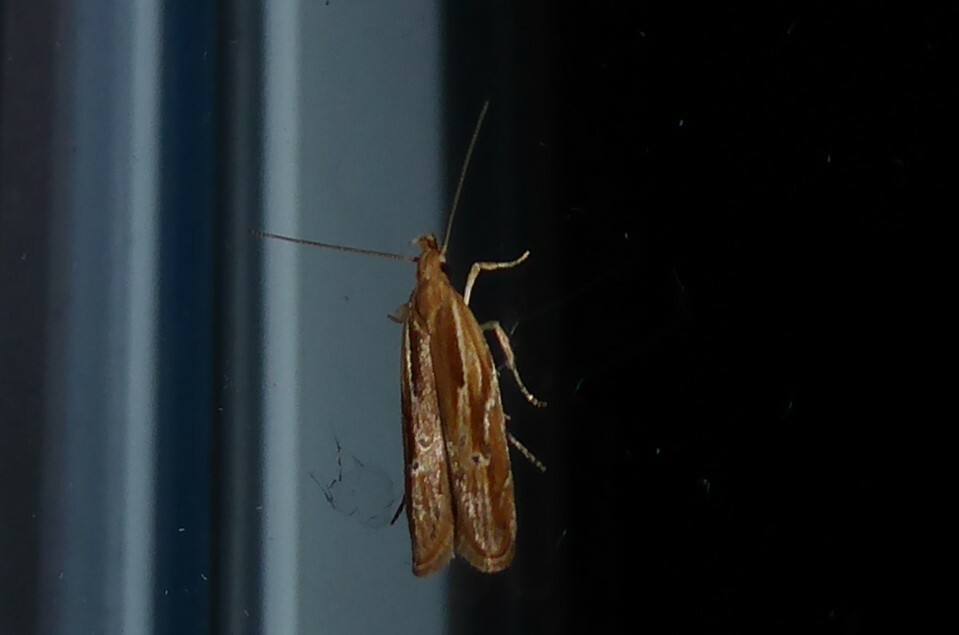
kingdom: Animalia
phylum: Arthropoda
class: Insecta
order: Lepidoptera
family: Depressariidae
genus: Eutorna
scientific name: Eutorna symmorpha
